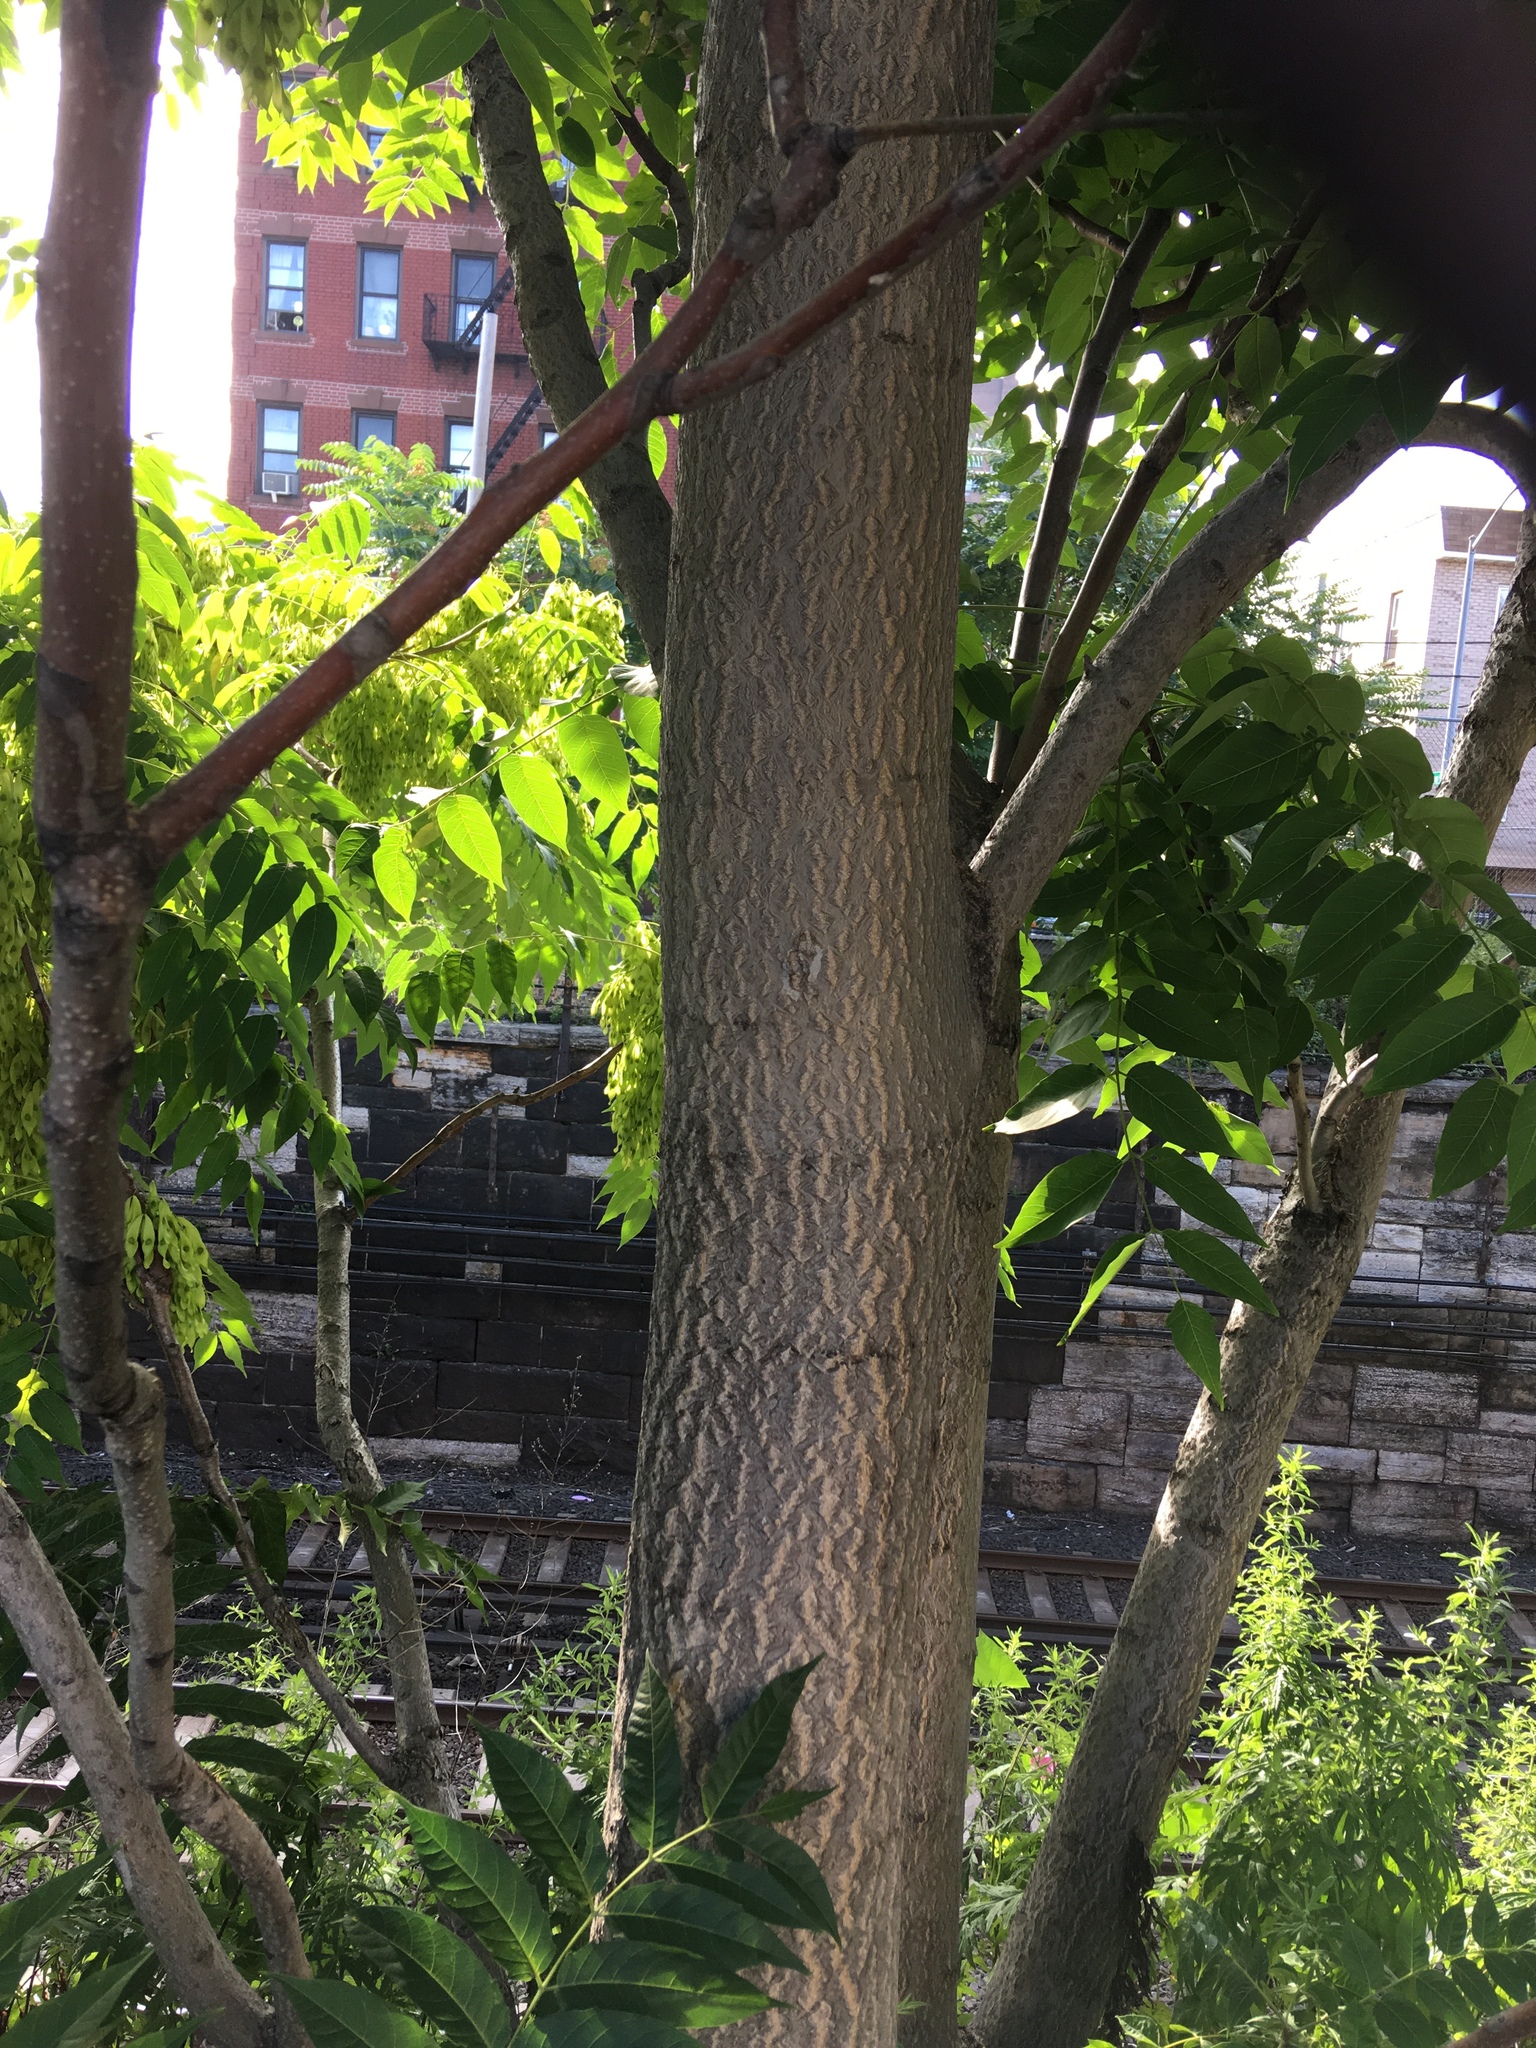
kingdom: Plantae
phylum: Tracheophyta
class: Magnoliopsida
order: Sapindales
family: Simaroubaceae
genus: Ailanthus
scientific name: Ailanthus altissima
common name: Tree-of-heaven
